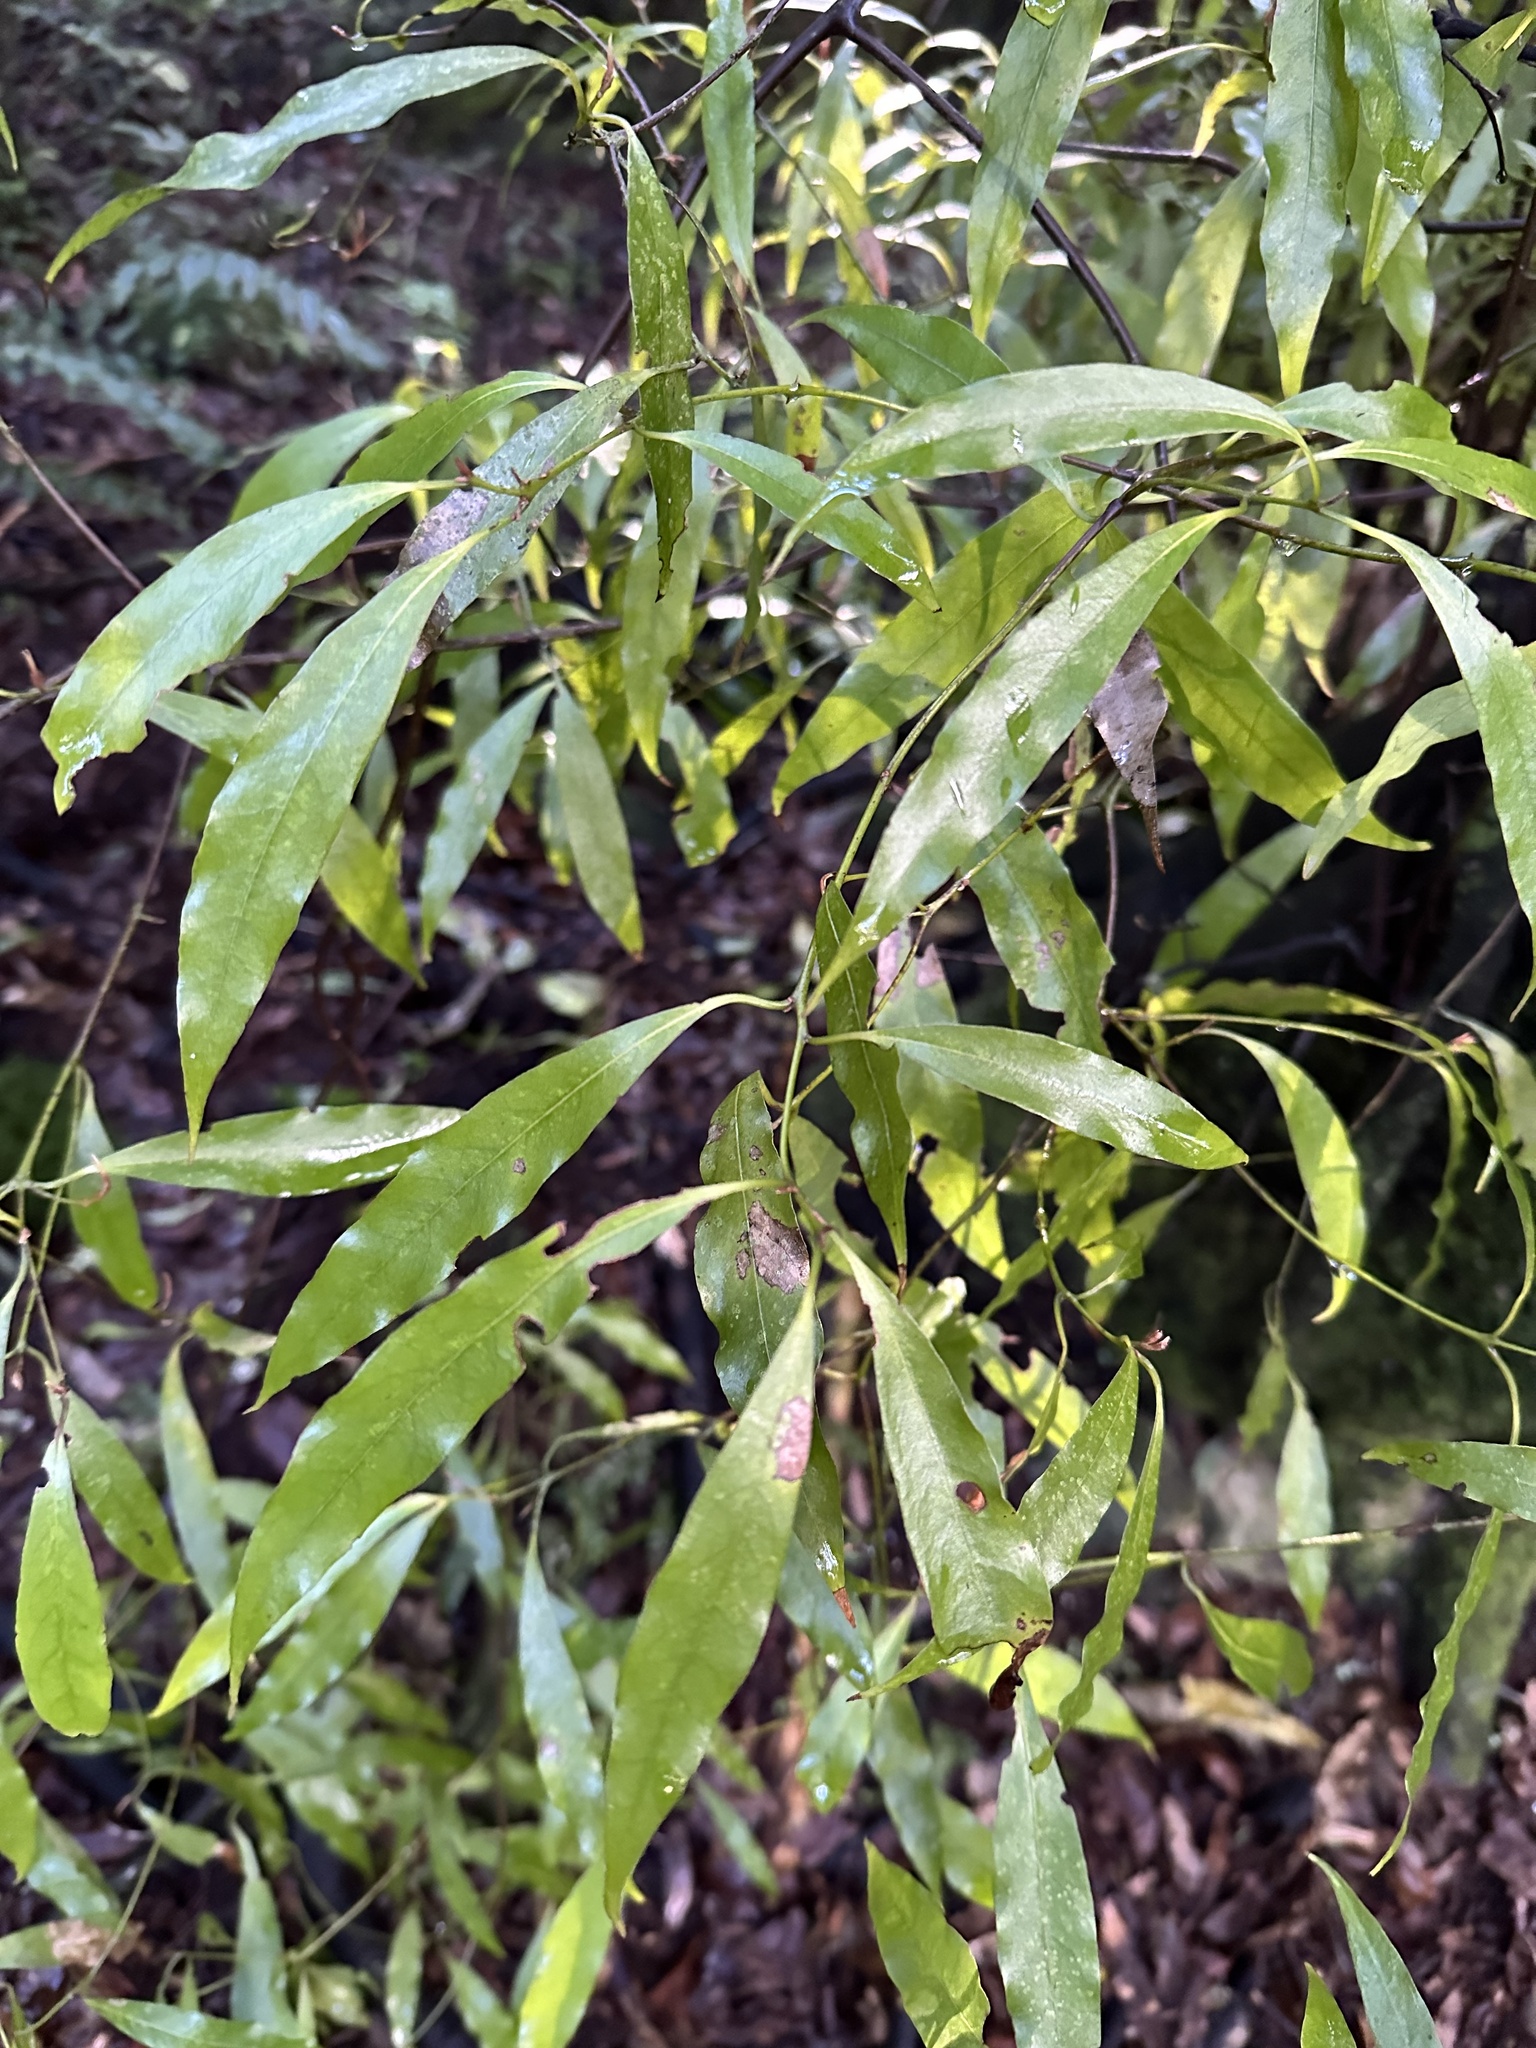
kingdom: Plantae
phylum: Tracheophyta
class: Magnoliopsida
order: Laurales
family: Lauraceae
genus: Beilschmiedia
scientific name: Beilschmiedia tawa
